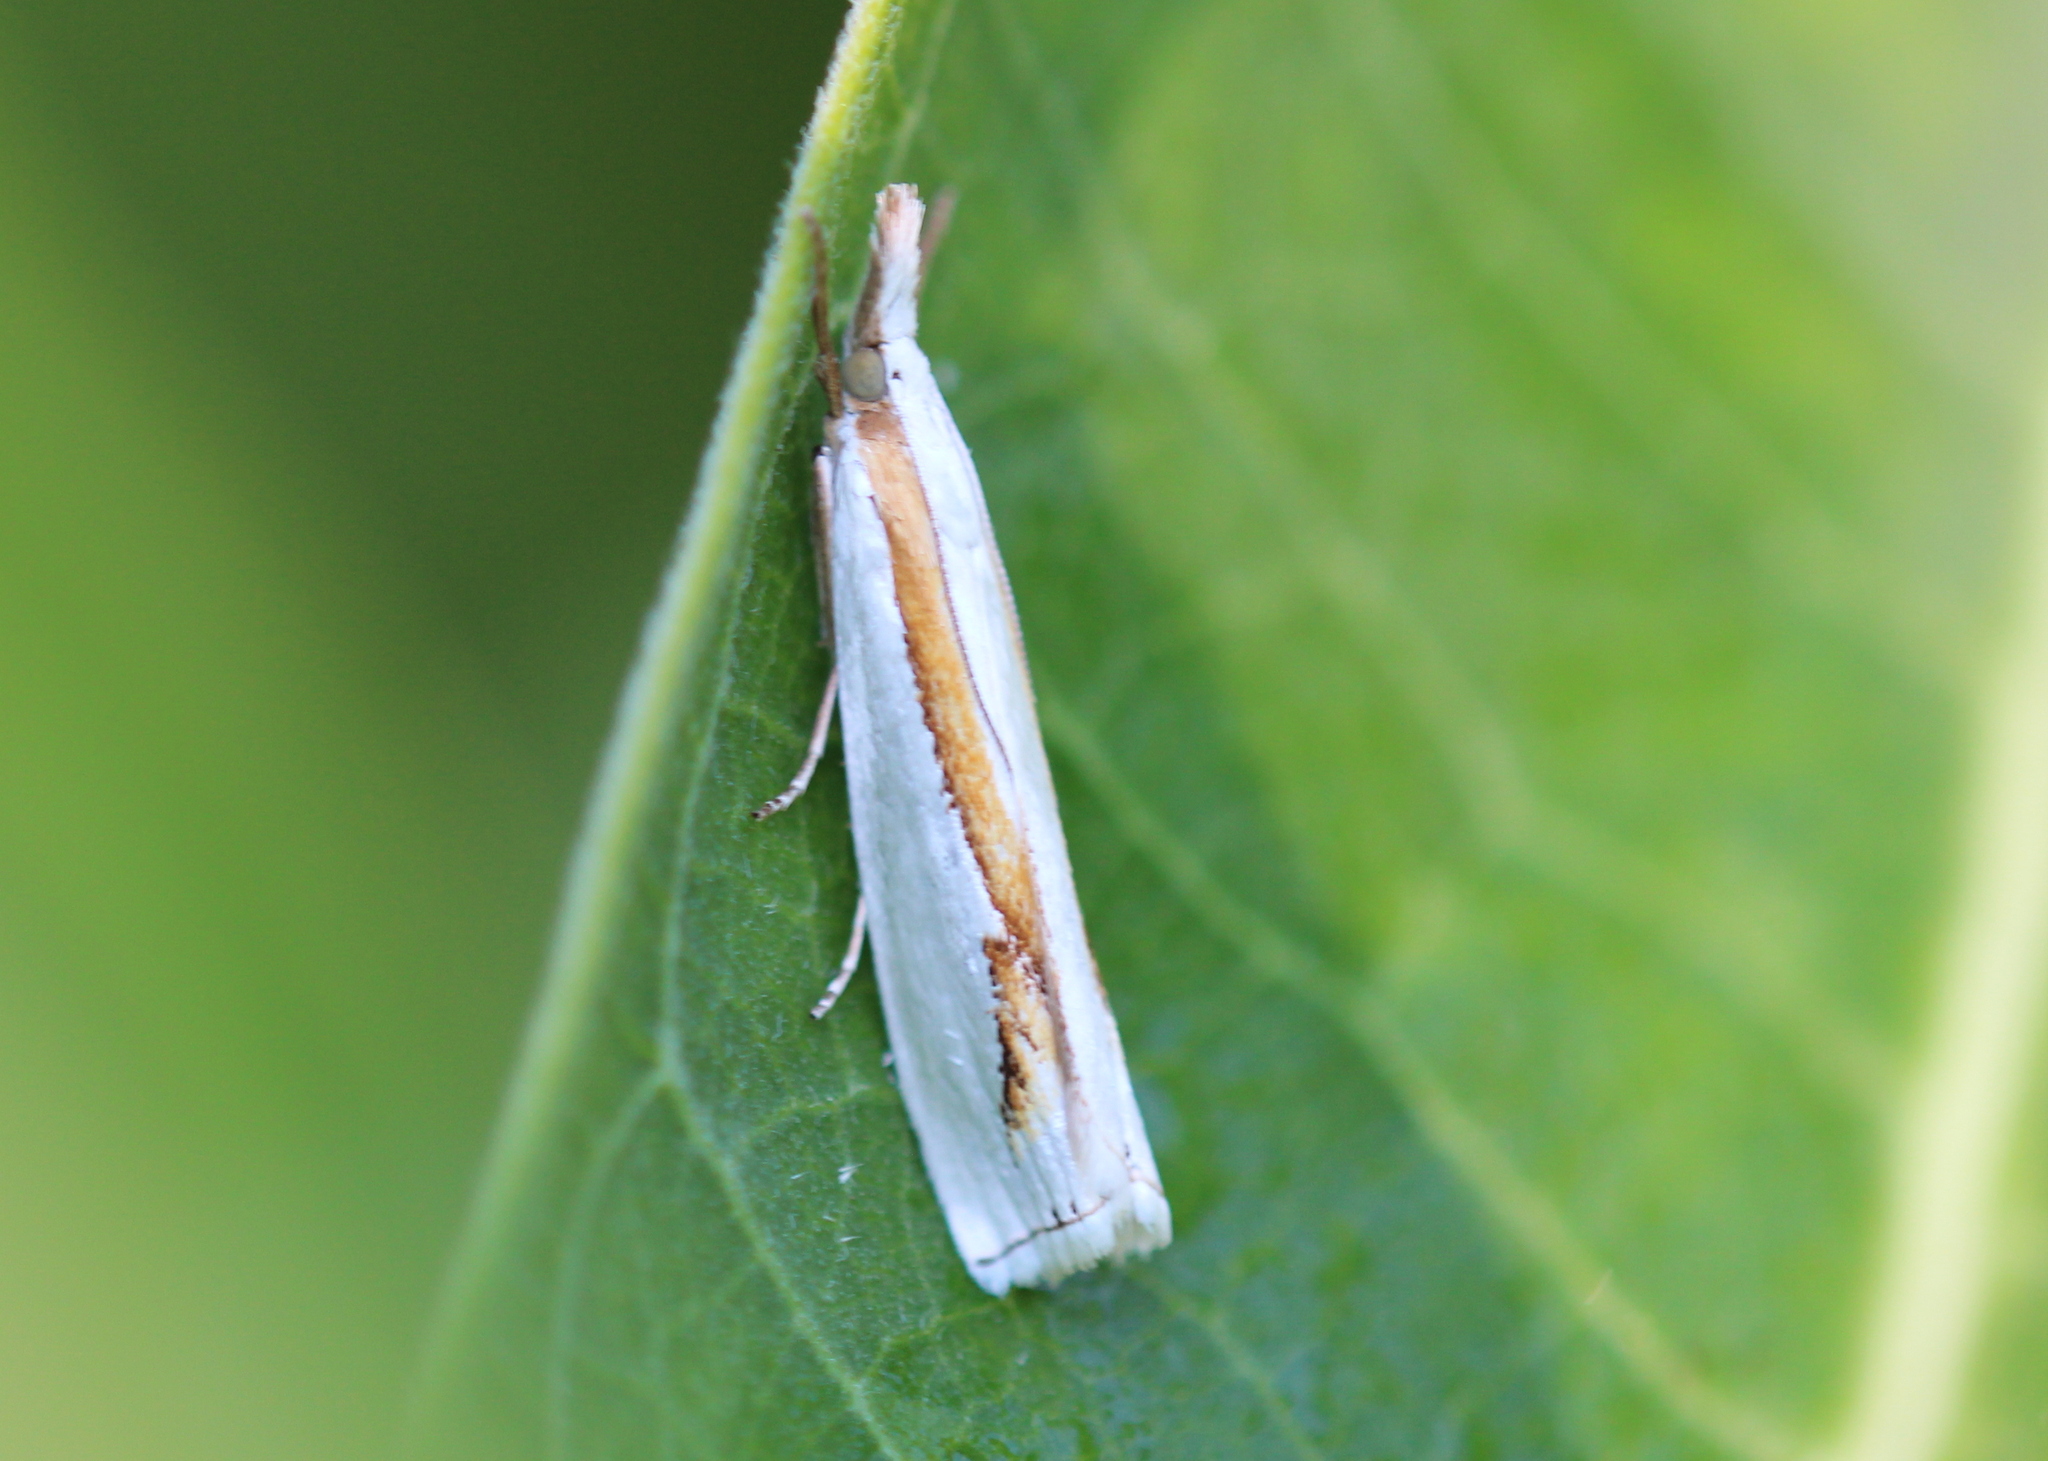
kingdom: Animalia
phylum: Arthropoda
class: Insecta
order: Lepidoptera
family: Crambidae
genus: Crambus
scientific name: Crambus girardellus
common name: Girard's grass-veneer
